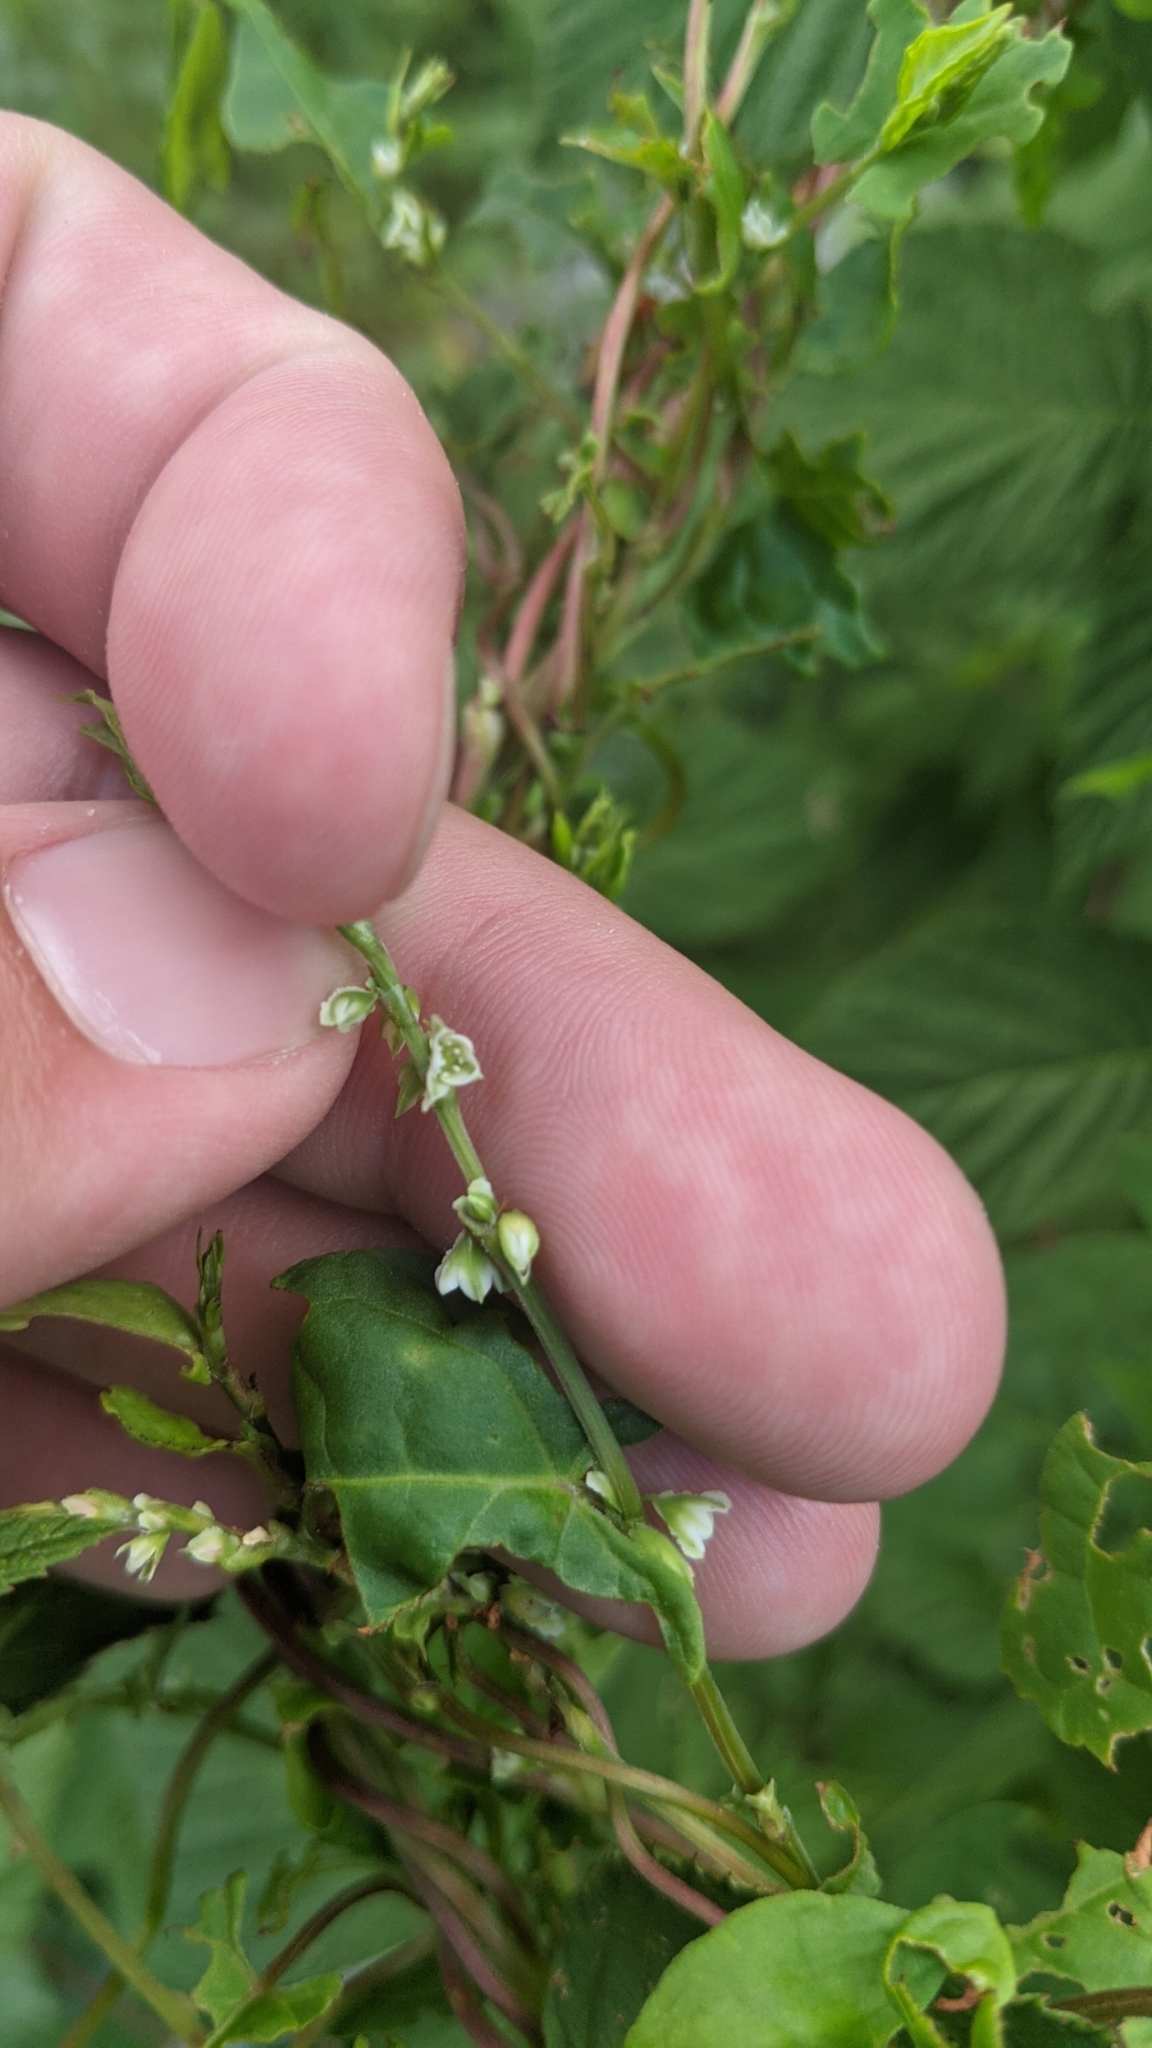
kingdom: Plantae
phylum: Tracheophyta
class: Magnoliopsida
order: Caryophyllales
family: Polygonaceae
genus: Fallopia
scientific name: Fallopia scandens
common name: Climbing false buckwheat
